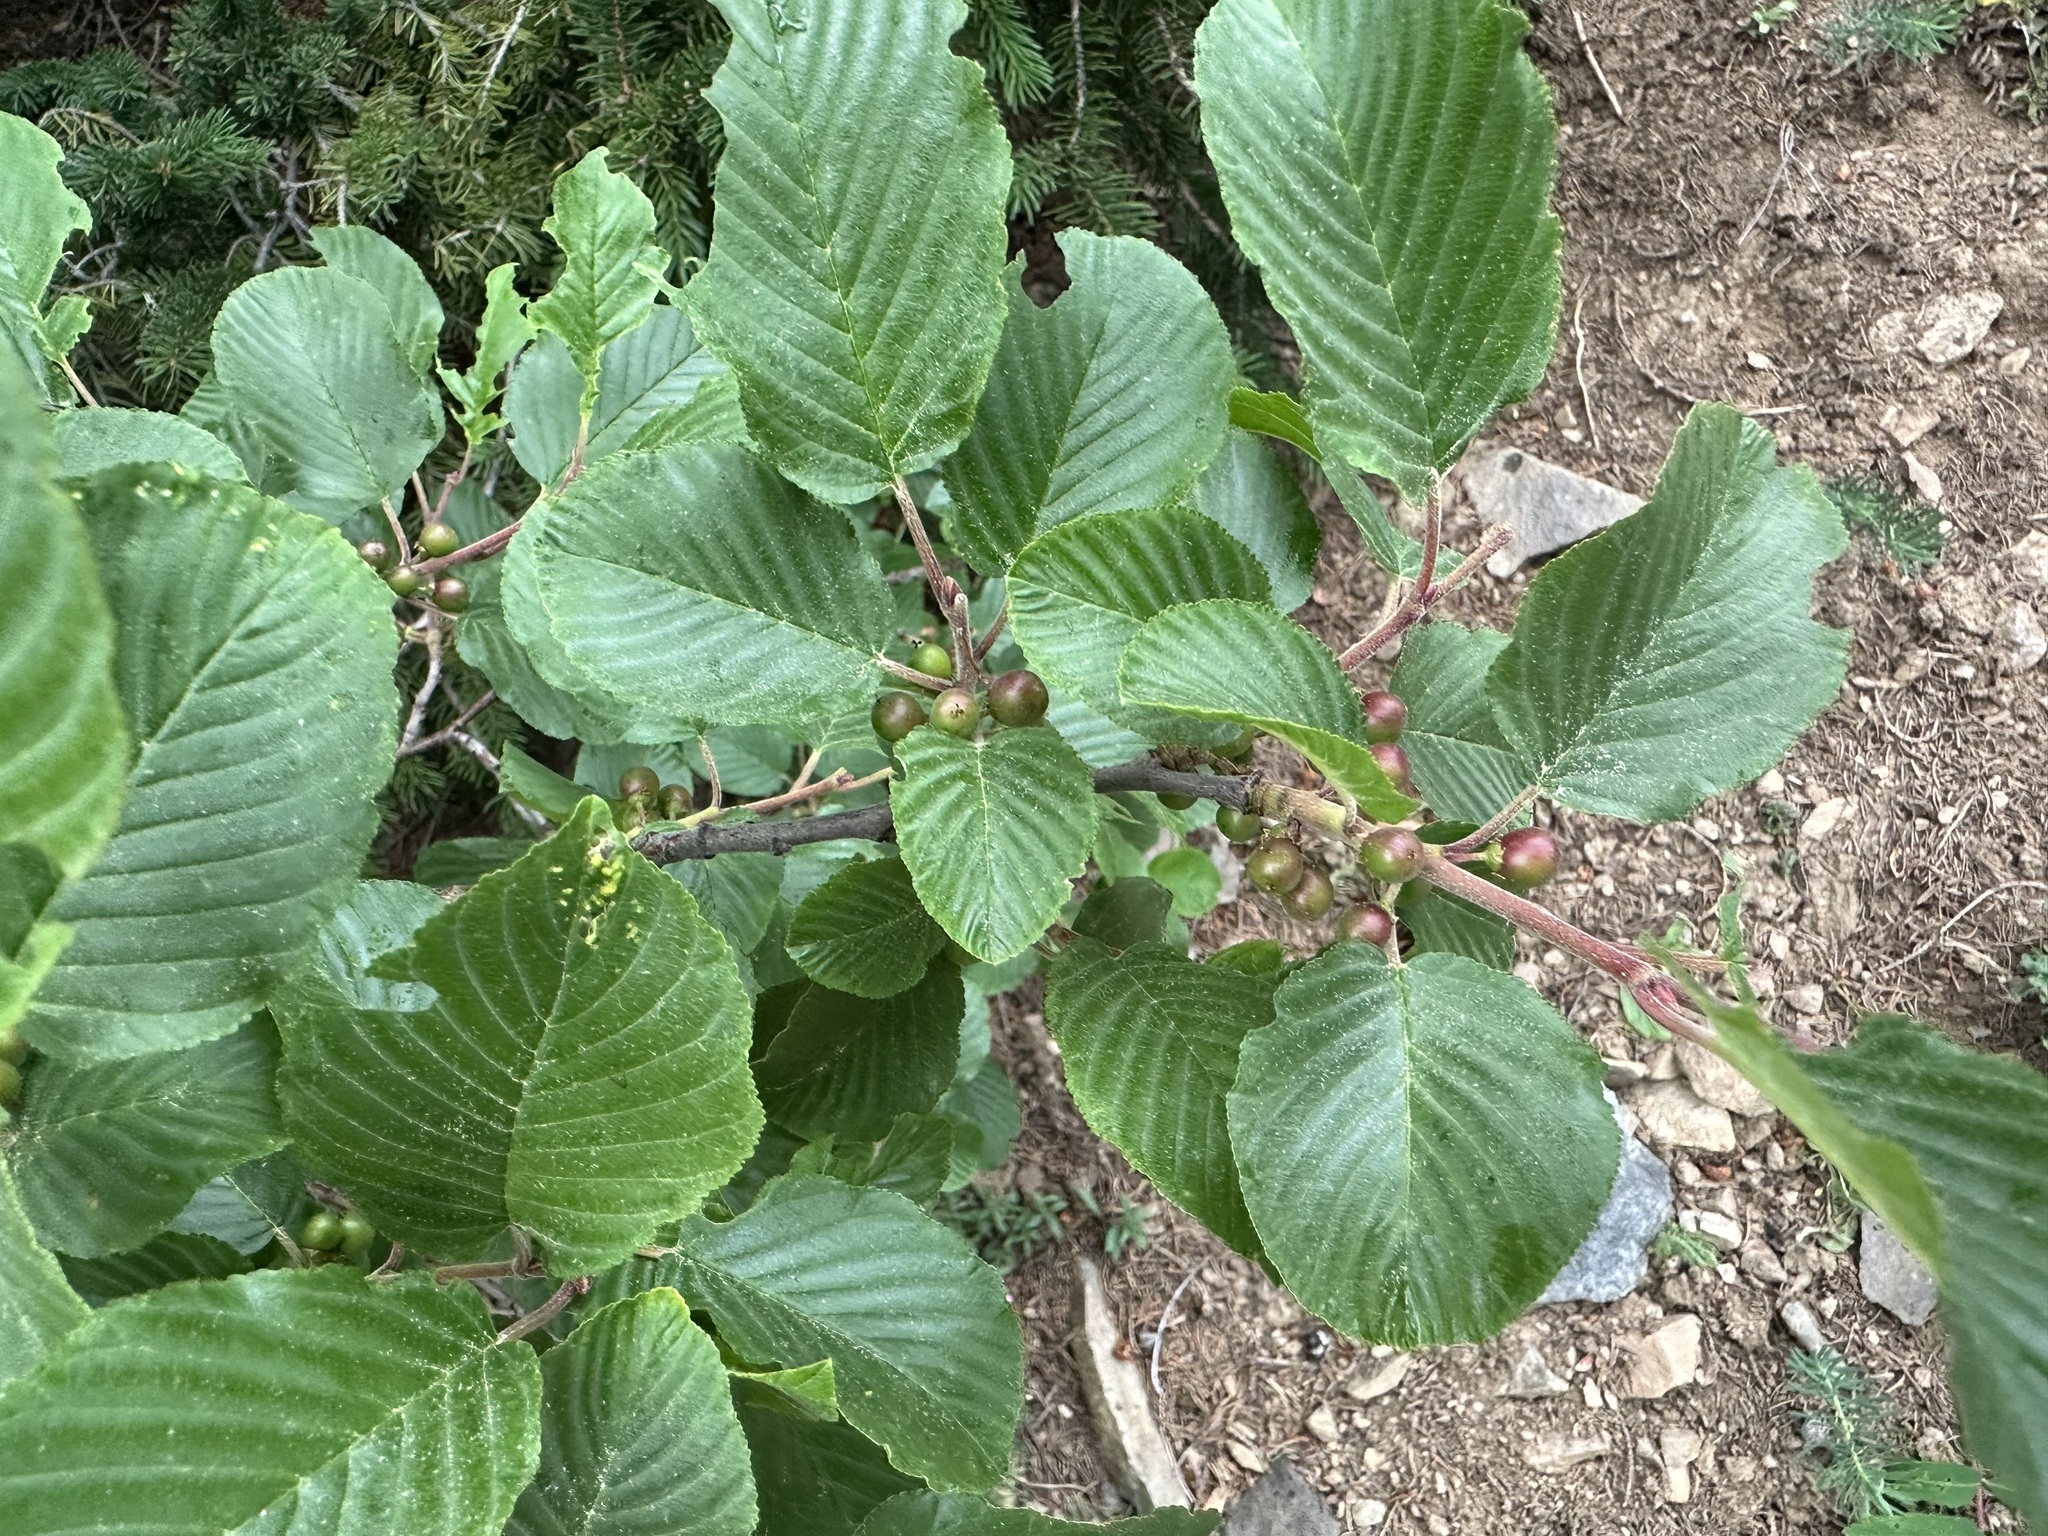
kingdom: Plantae
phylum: Tracheophyta
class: Magnoliopsida
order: Rosales
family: Rhamnaceae
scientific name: Rhamnaceae
